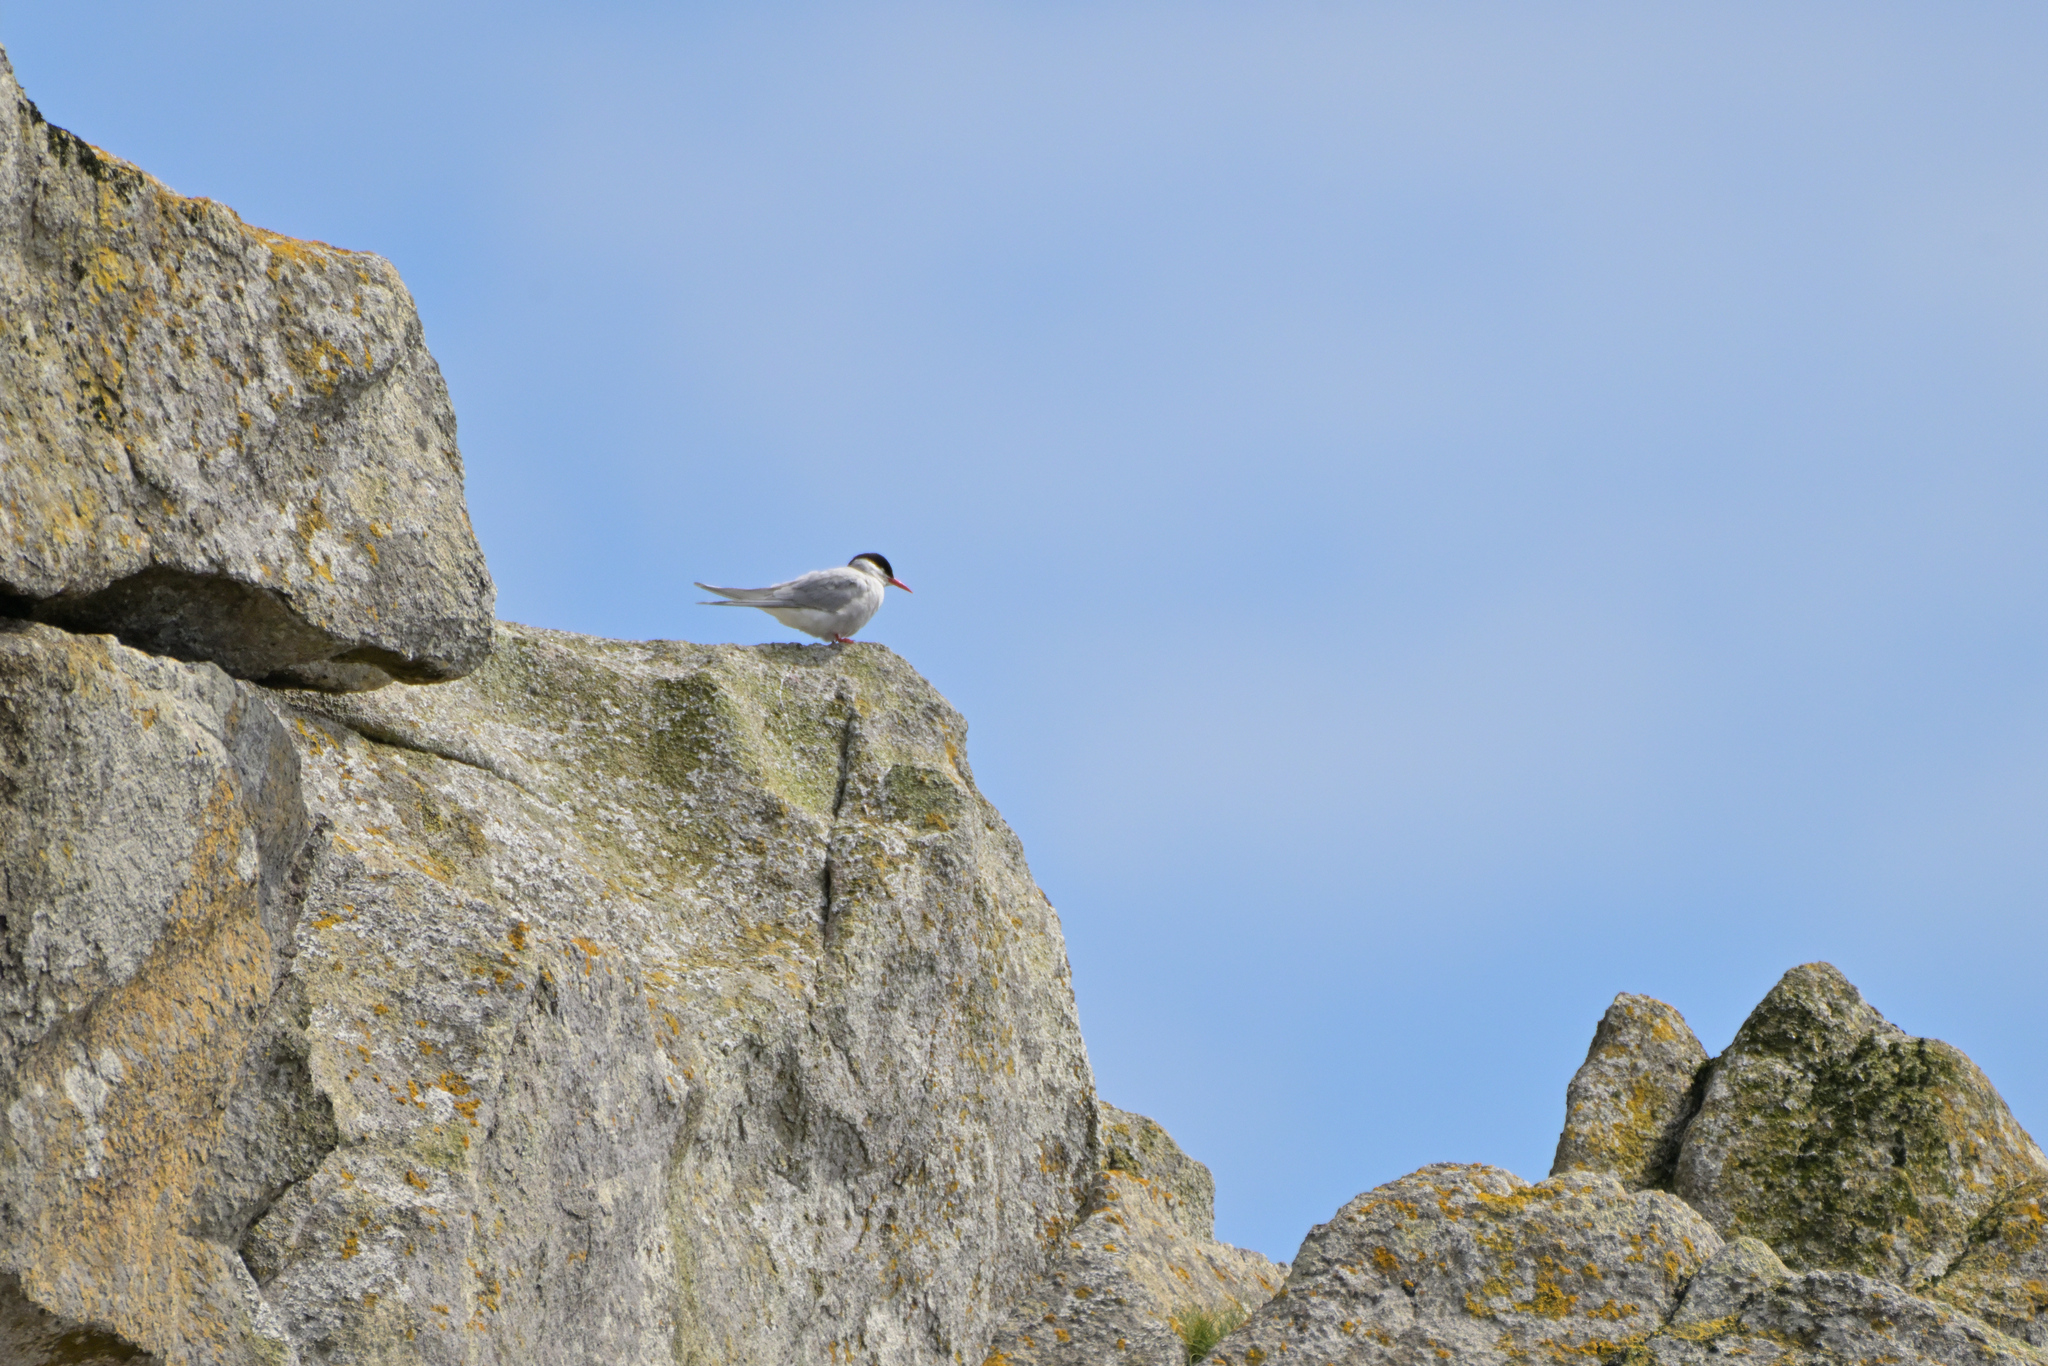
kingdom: Animalia
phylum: Chordata
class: Aves
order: Charadriiformes
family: Laridae
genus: Sterna
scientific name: Sterna vittata
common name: Antarctic tern
